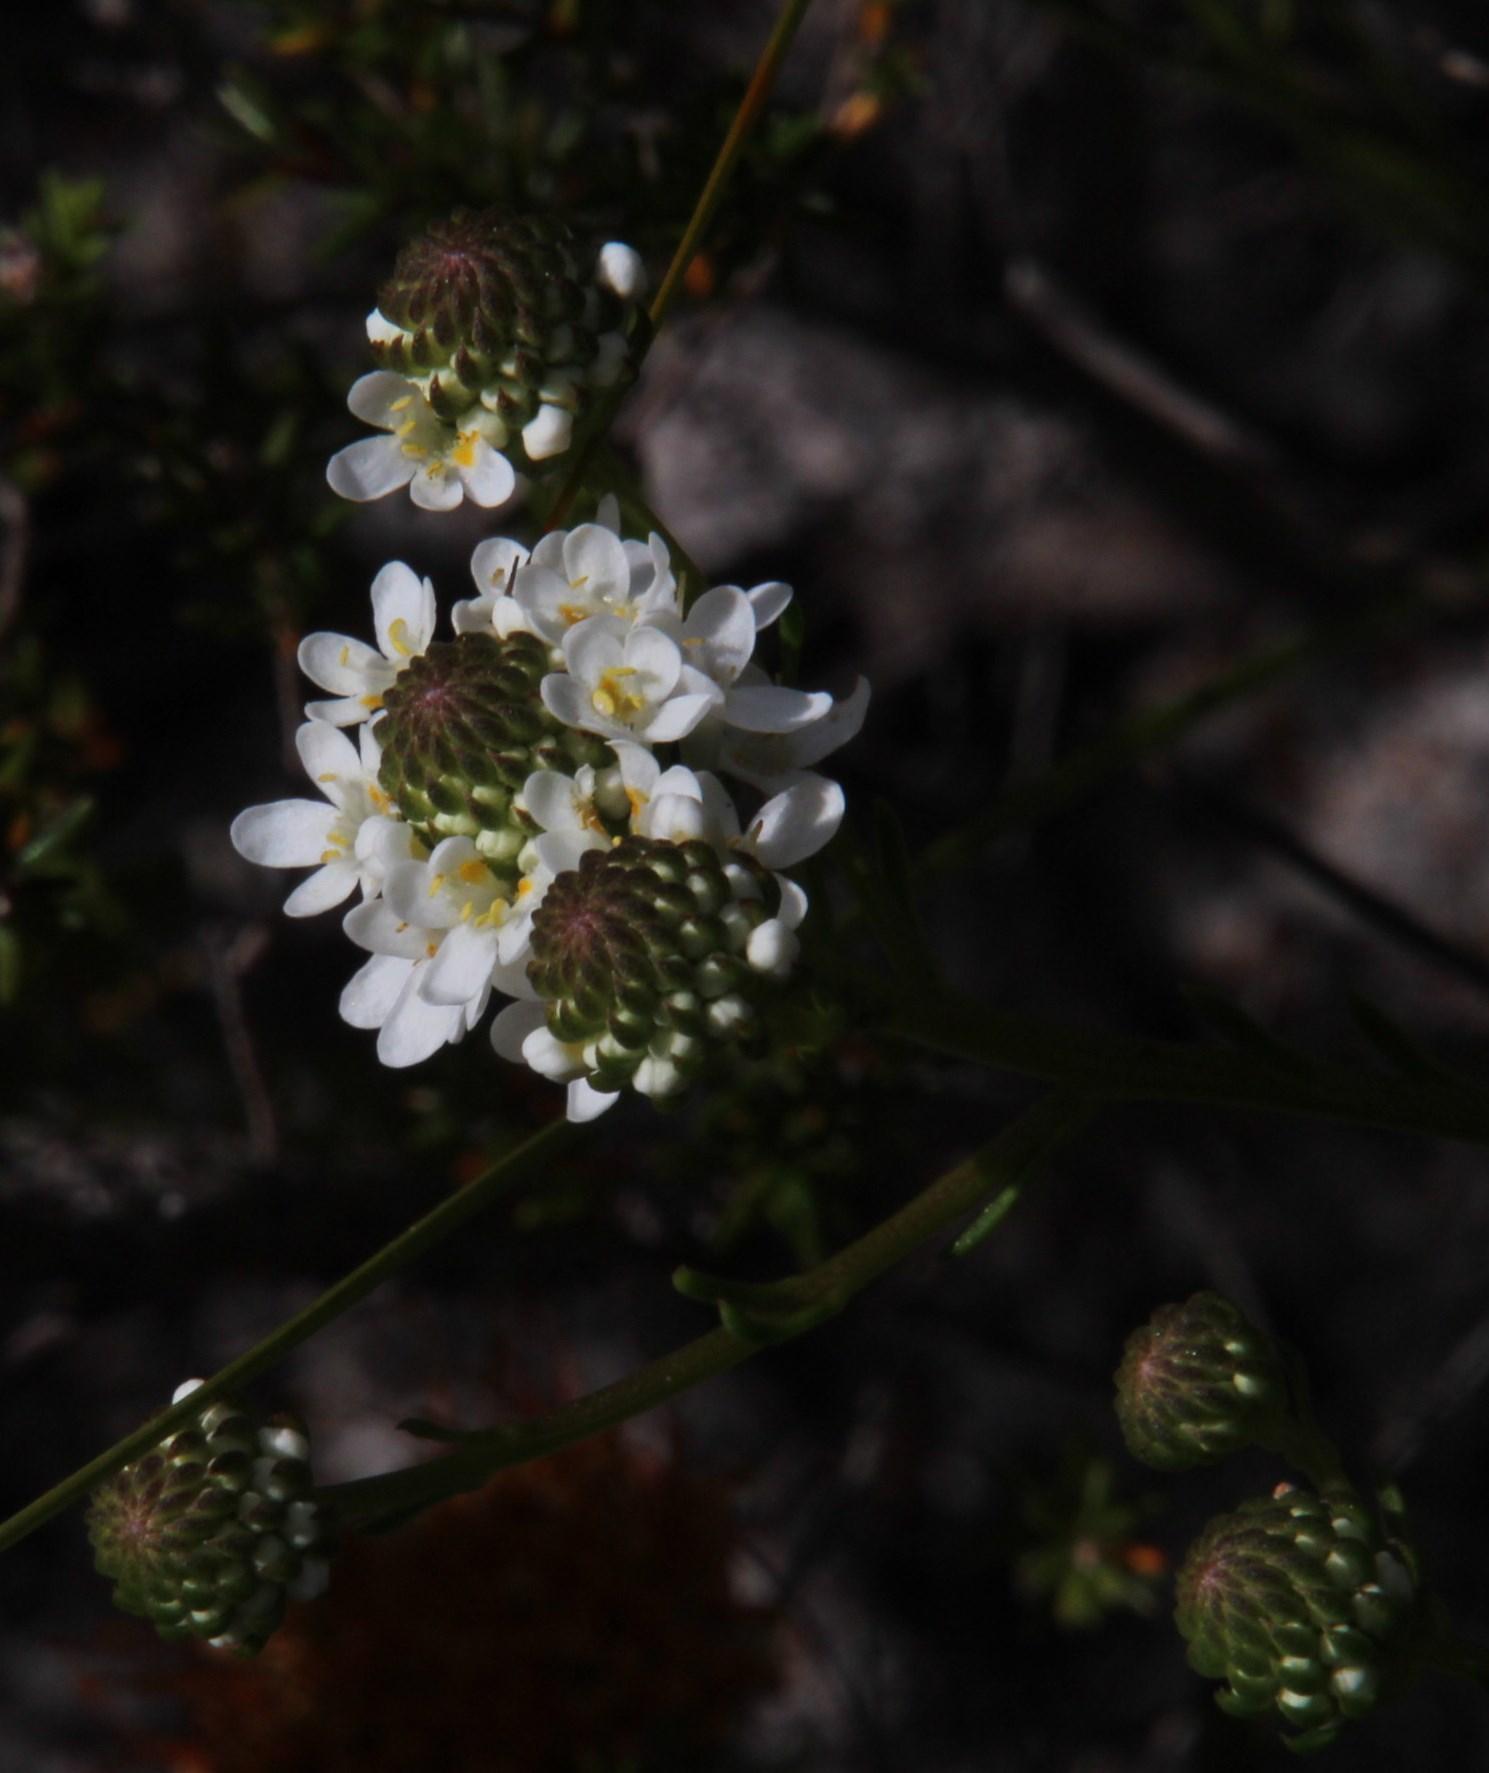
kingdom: Plantae
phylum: Tracheophyta
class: Magnoliopsida
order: Lamiales
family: Scrophulariaceae
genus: Pseudoselago
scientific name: Pseudoselago gracilis
